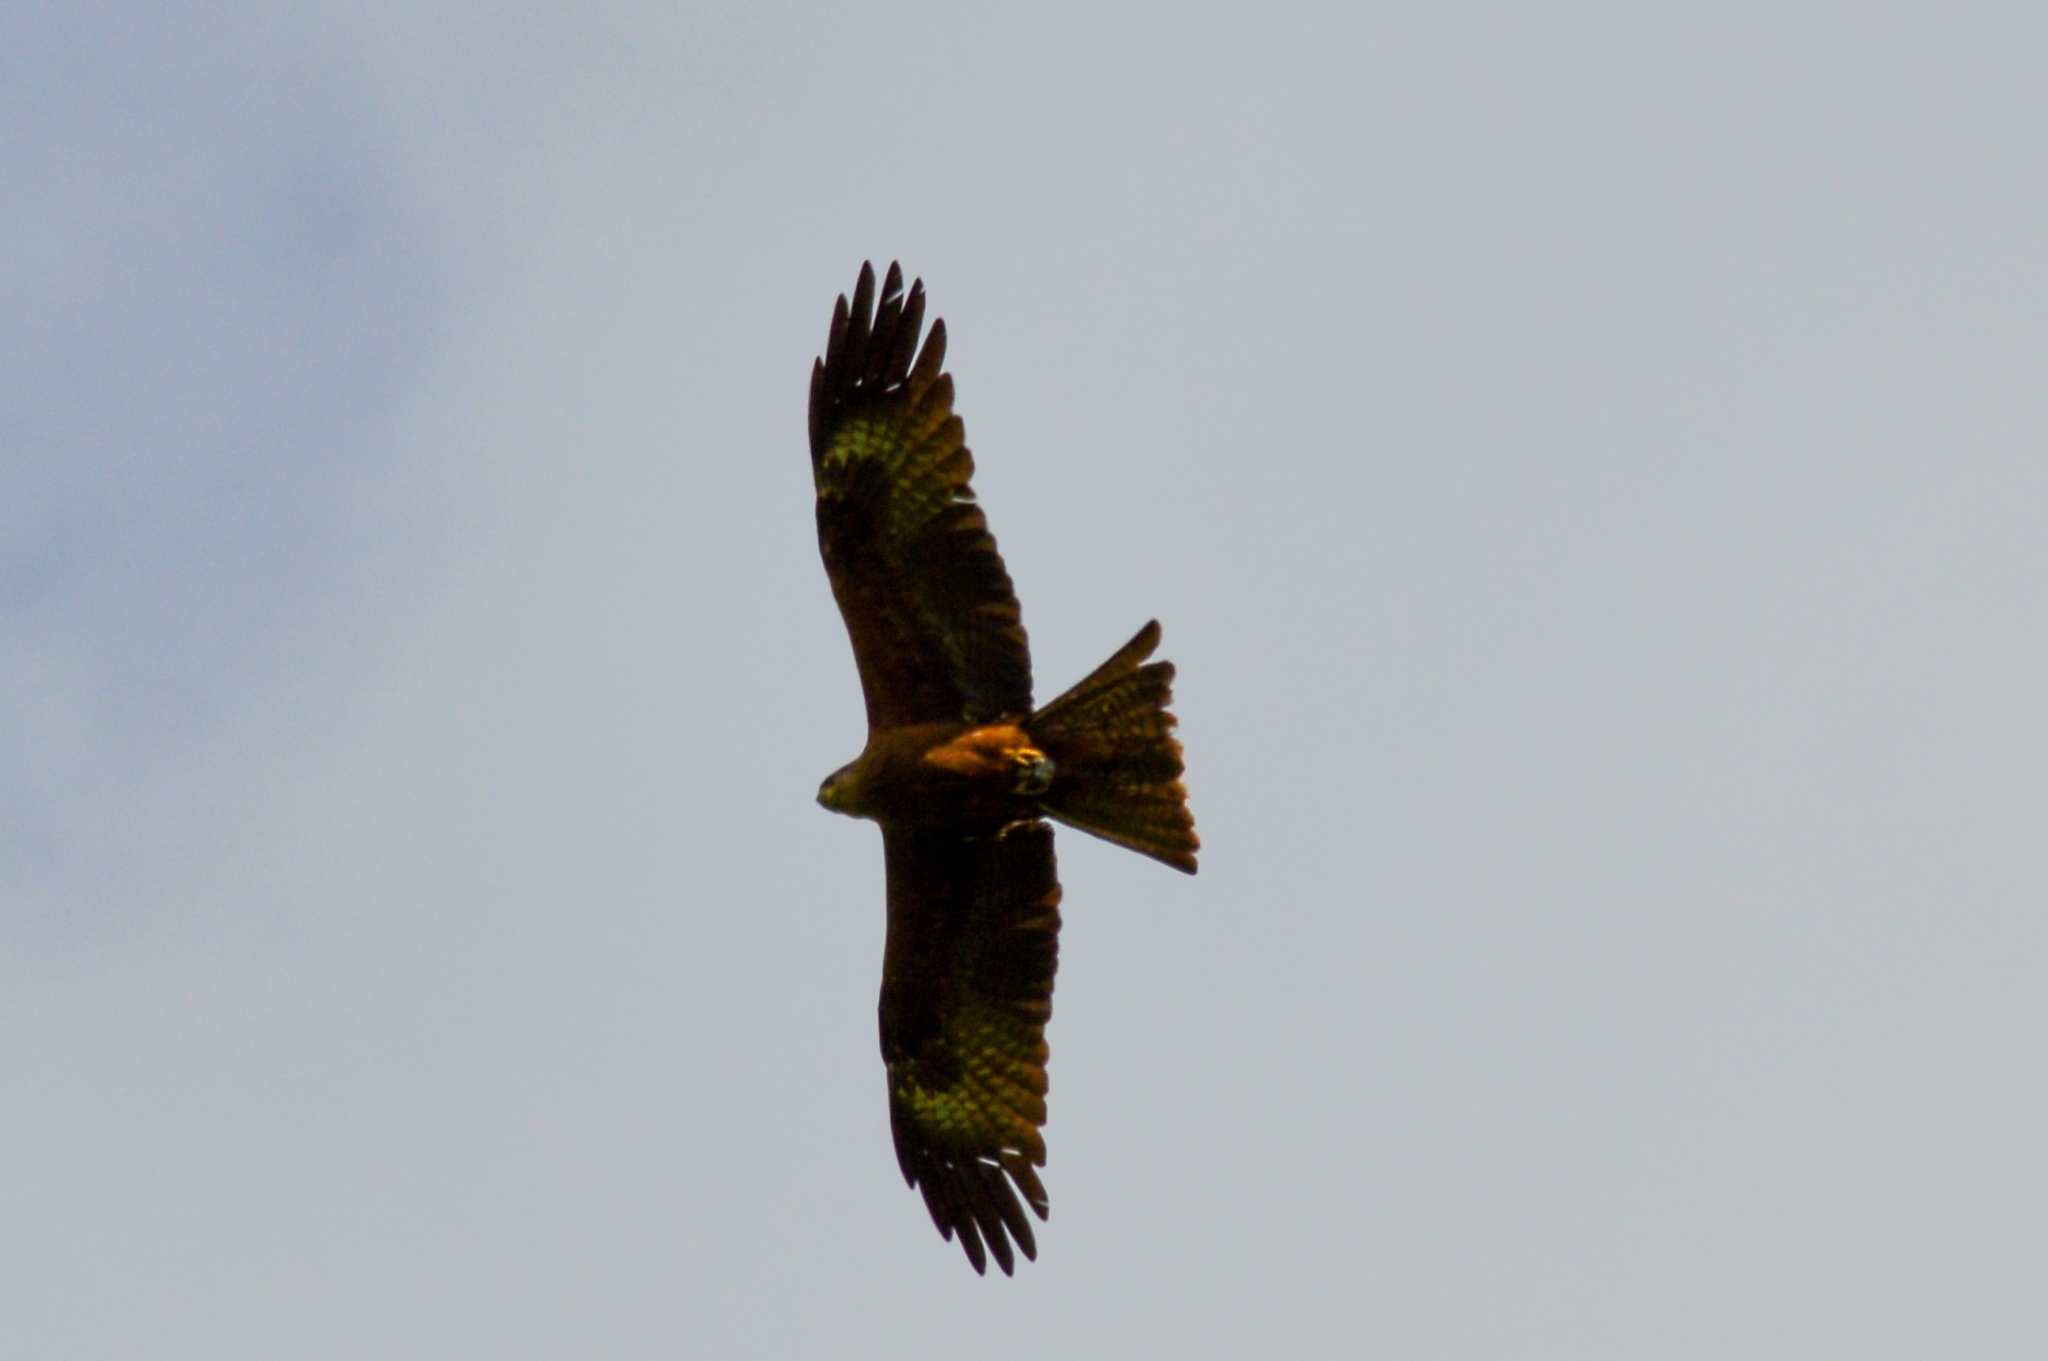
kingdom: Animalia
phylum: Chordata
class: Aves
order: Accipitriformes
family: Accipitridae
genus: Milvus
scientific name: Milvus migrans
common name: Black kite
